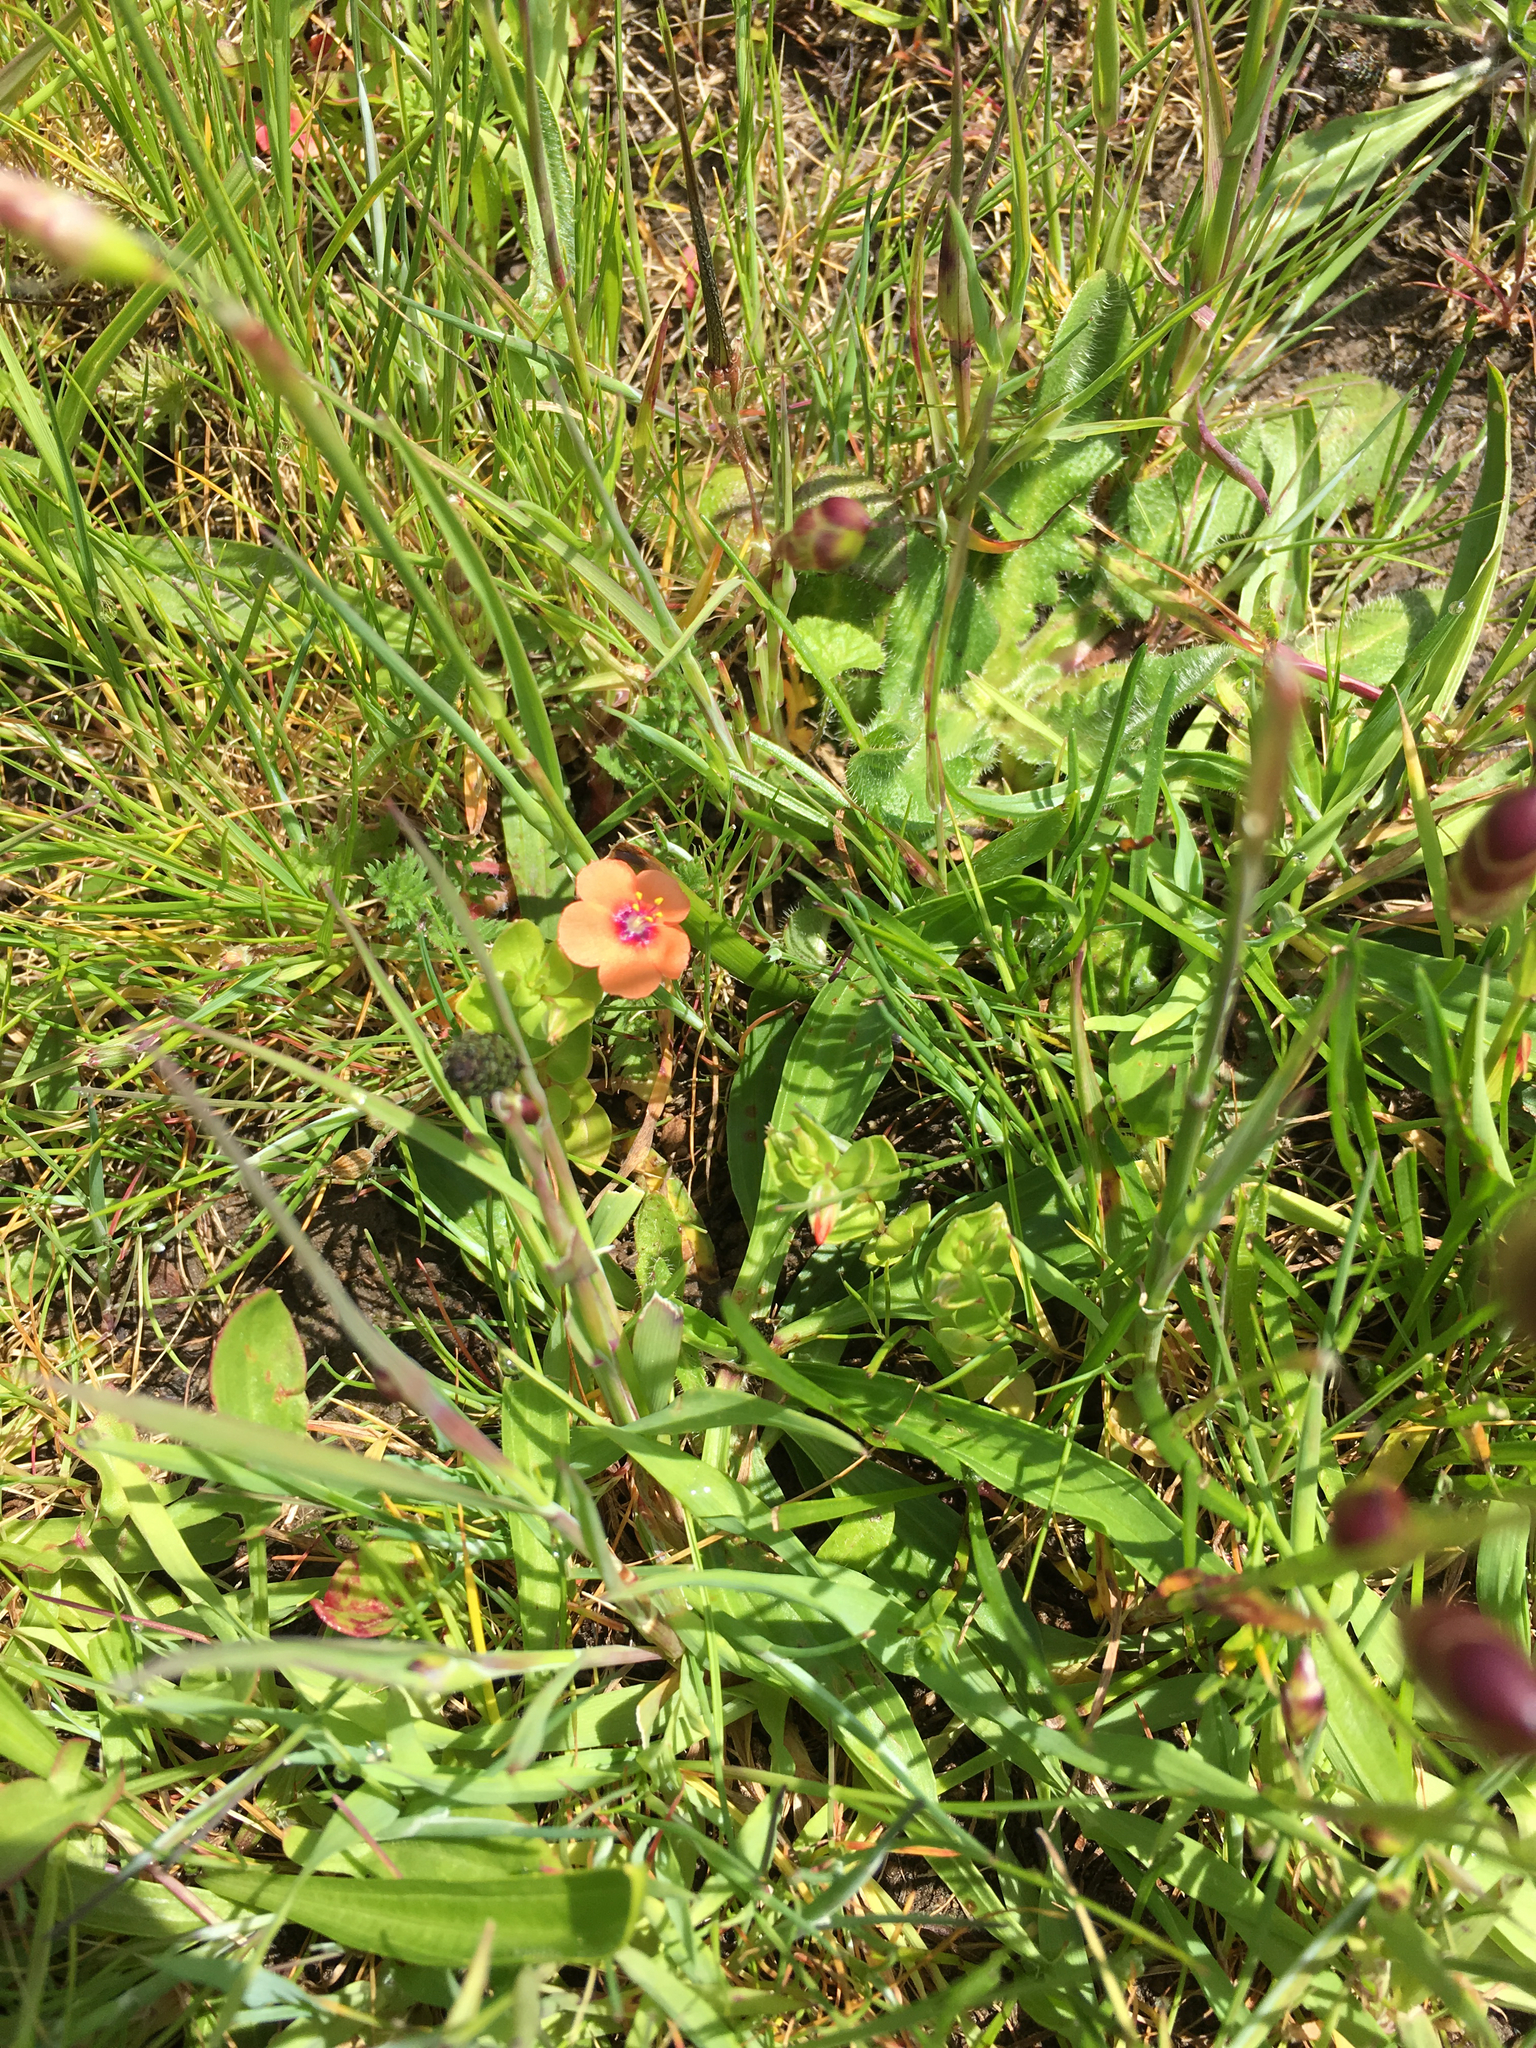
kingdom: Plantae
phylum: Tracheophyta
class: Magnoliopsida
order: Ericales
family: Primulaceae
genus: Lysimachia
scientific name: Lysimachia arvensis
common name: Scarlet pimpernel
